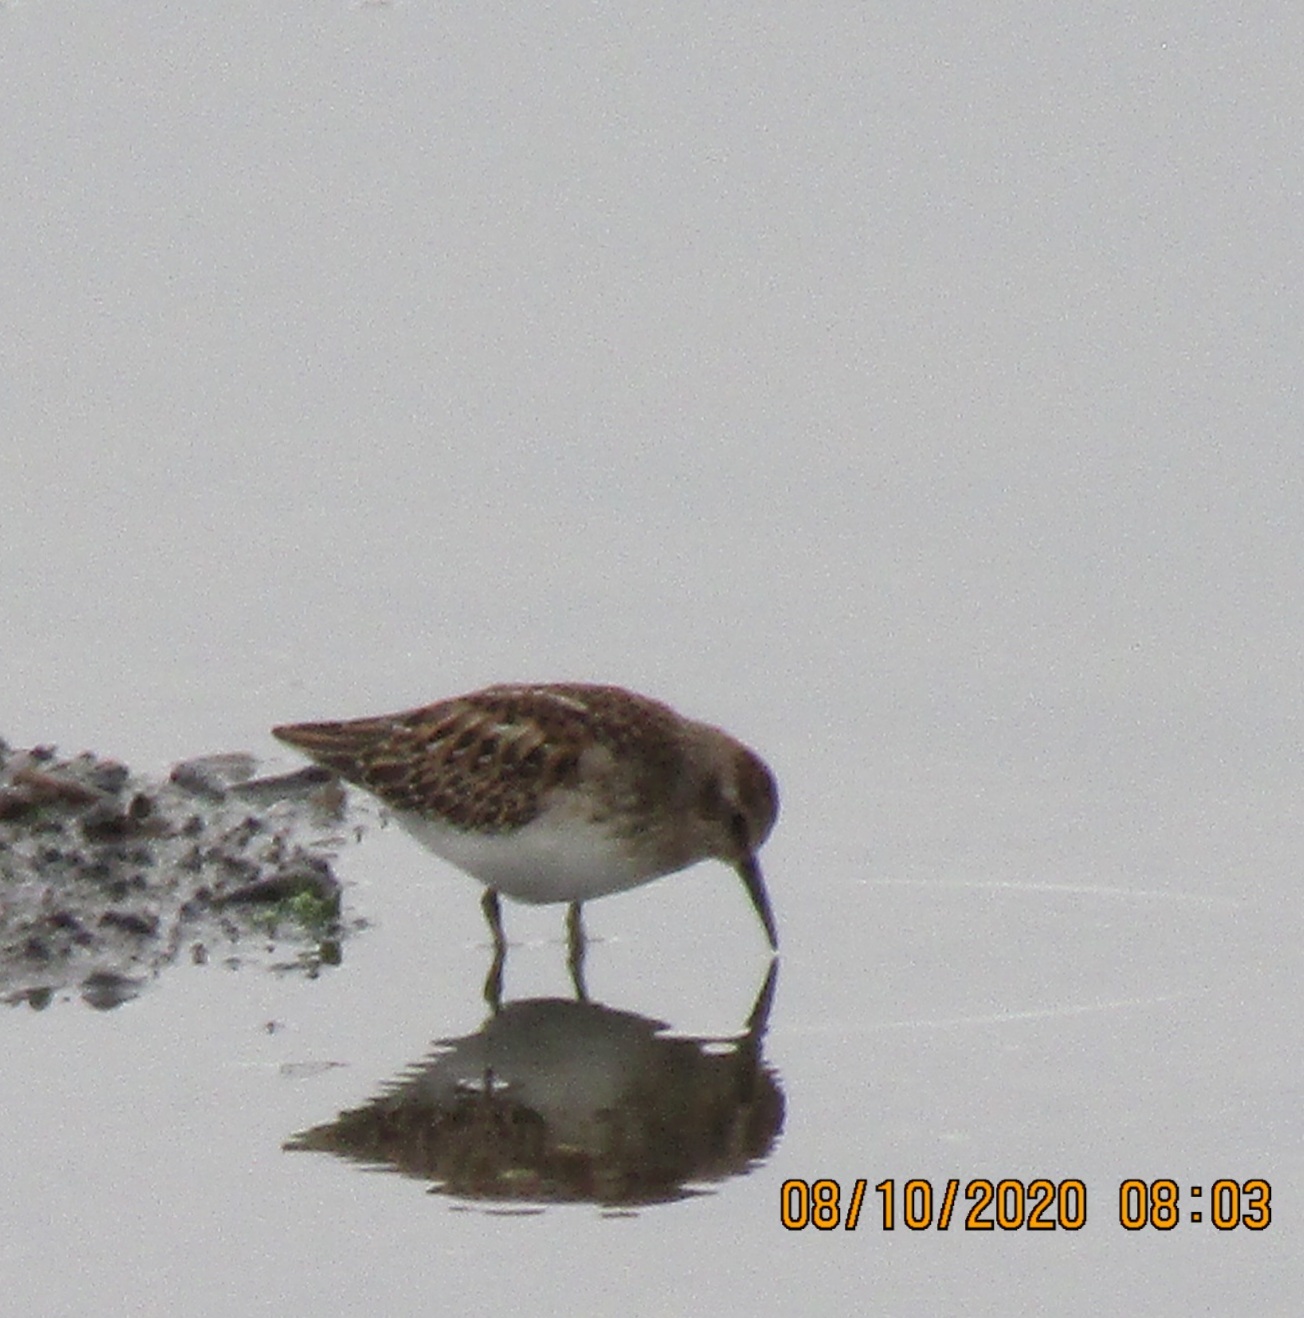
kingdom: Animalia
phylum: Chordata
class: Aves
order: Charadriiformes
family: Scolopacidae
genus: Calidris
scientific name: Calidris minutilla
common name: Least sandpiper
